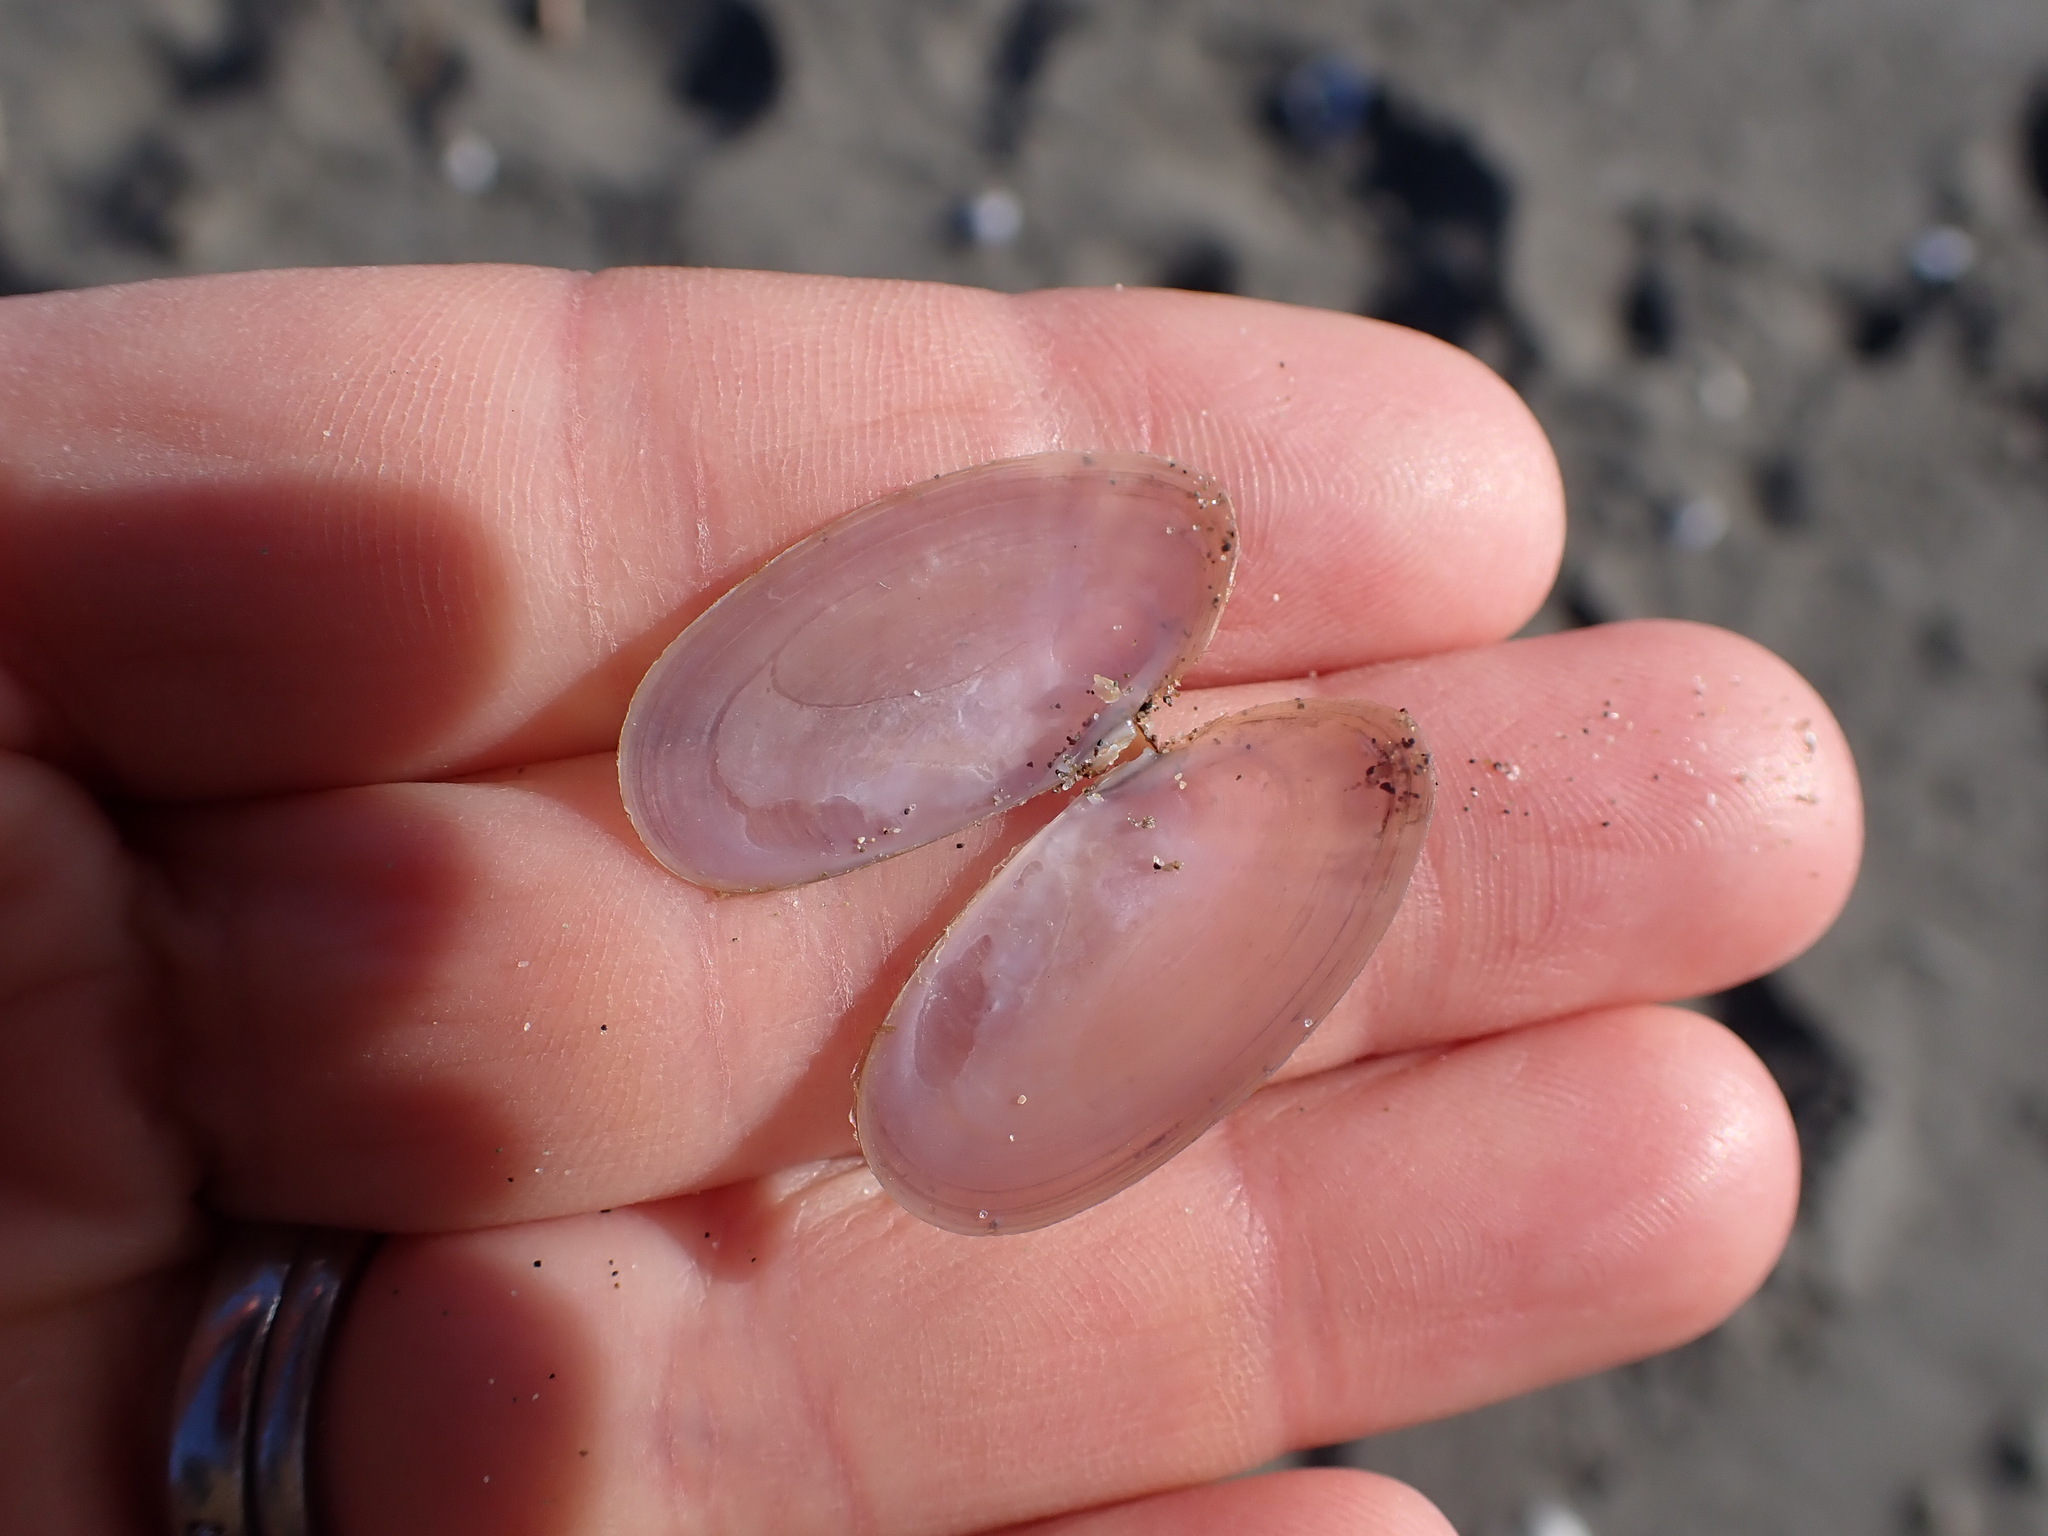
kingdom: Animalia
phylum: Mollusca
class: Bivalvia
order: Cardiida
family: Psammobiidae
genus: Hiatula
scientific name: Hiatula nitida
